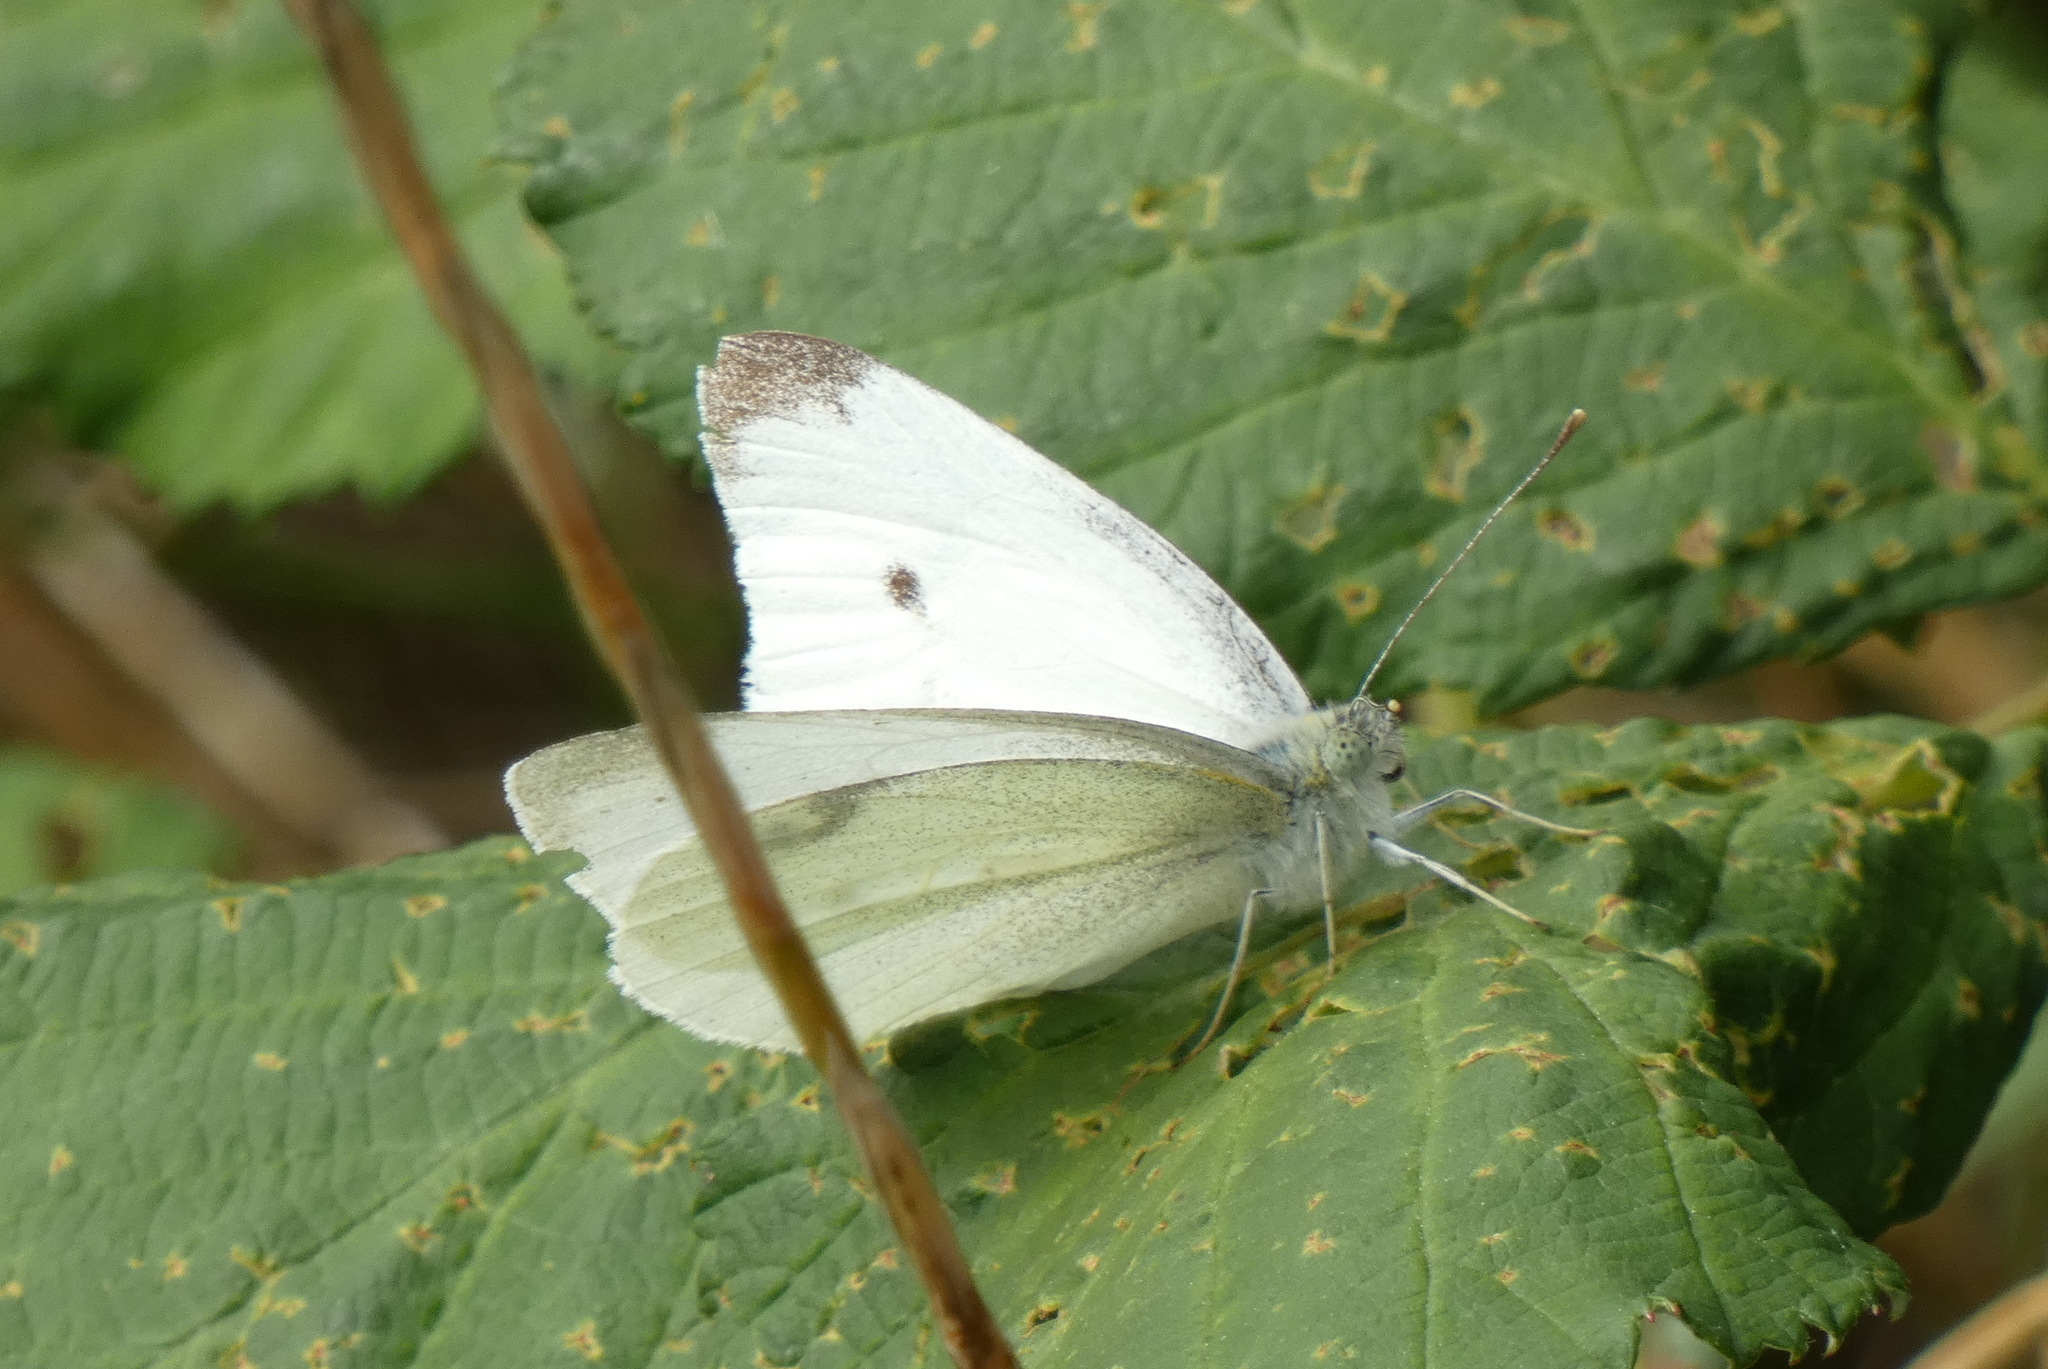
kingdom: Animalia
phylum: Arthropoda
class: Insecta
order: Lepidoptera
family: Pieridae
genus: Pieris
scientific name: Pieris rapae
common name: Small white
